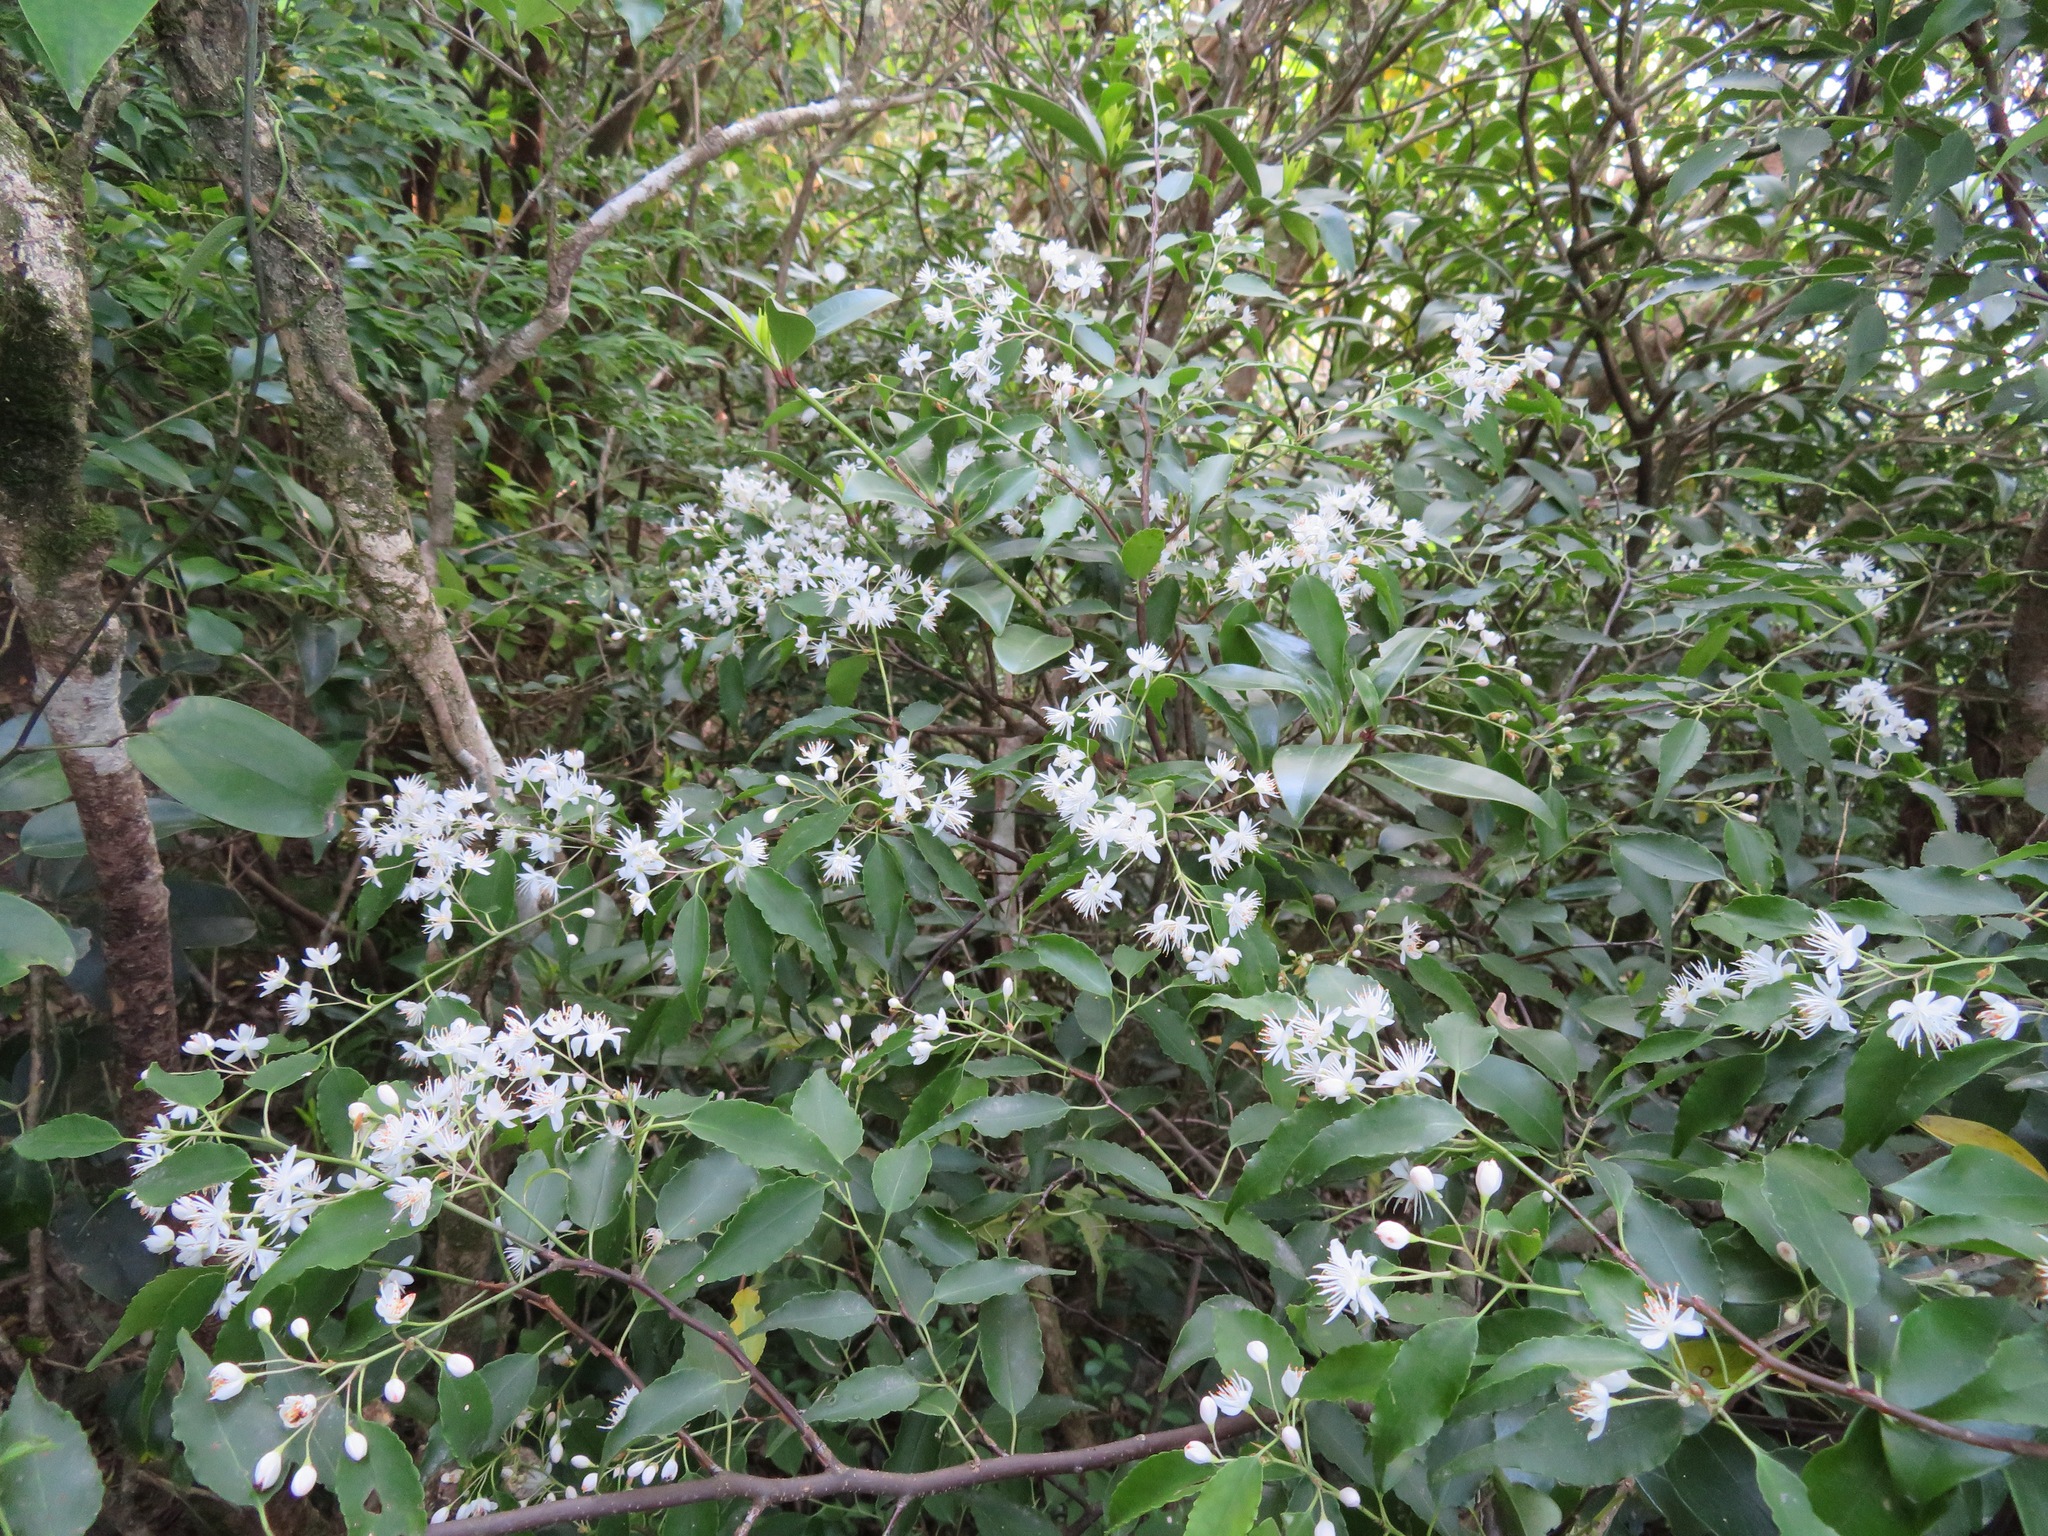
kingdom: Plantae
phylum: Tracheophyta
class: Magnoliopsida
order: Ericales
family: Symplocaceae
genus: Symplocos
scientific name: Symplocos myrtacea
